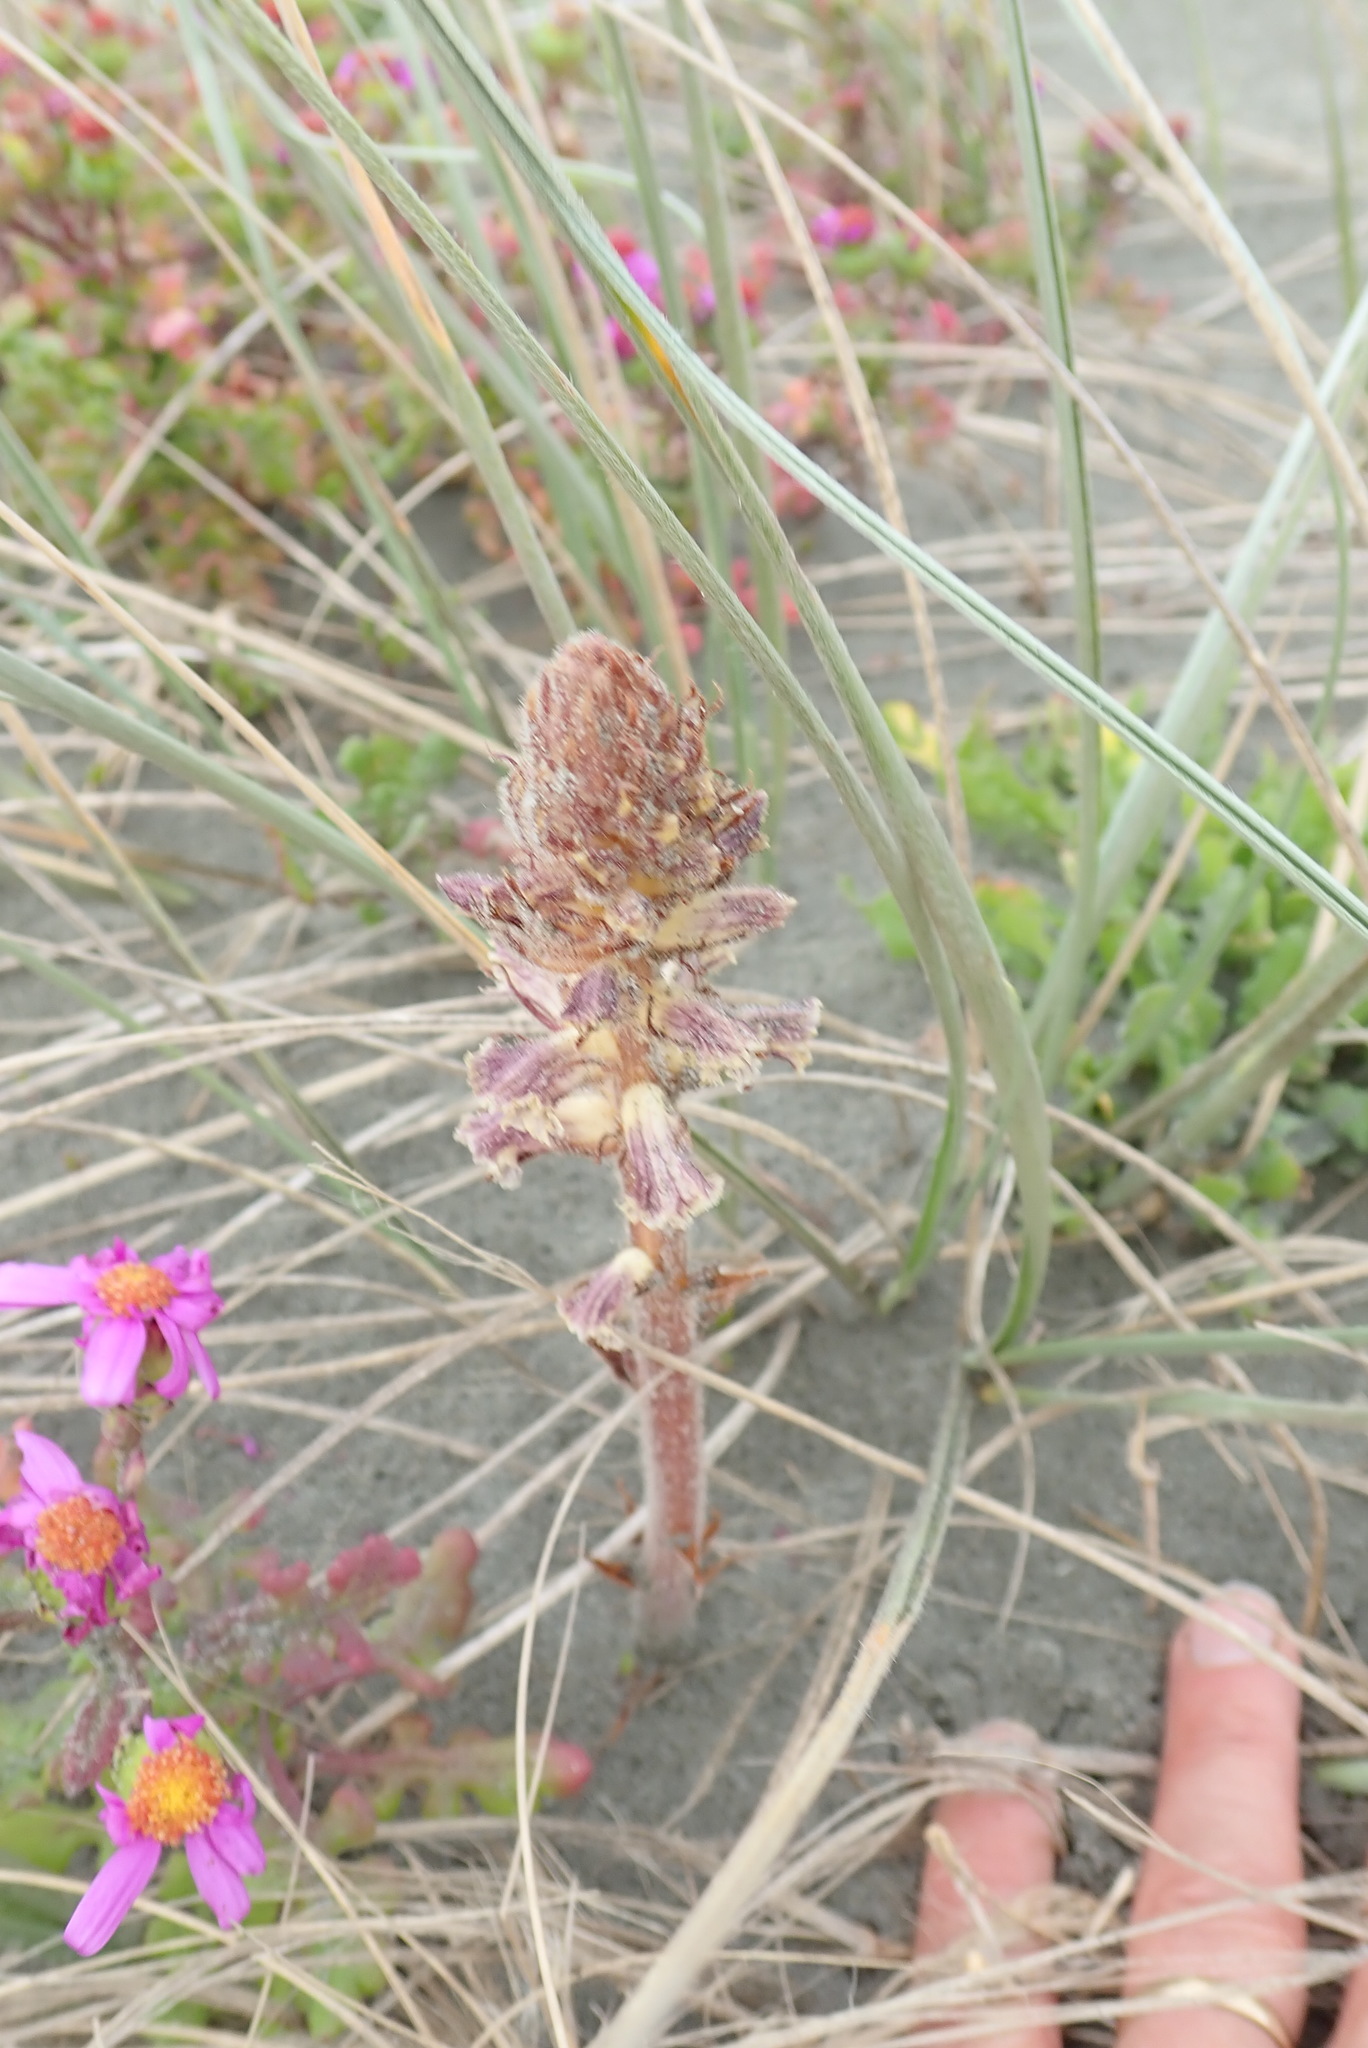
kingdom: Plantae
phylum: Tracheophyta
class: Magnoliopsida
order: Lamiales
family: Orobanchaceae
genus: Orobanche
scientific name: Orobanche minor
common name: Common broomrape
